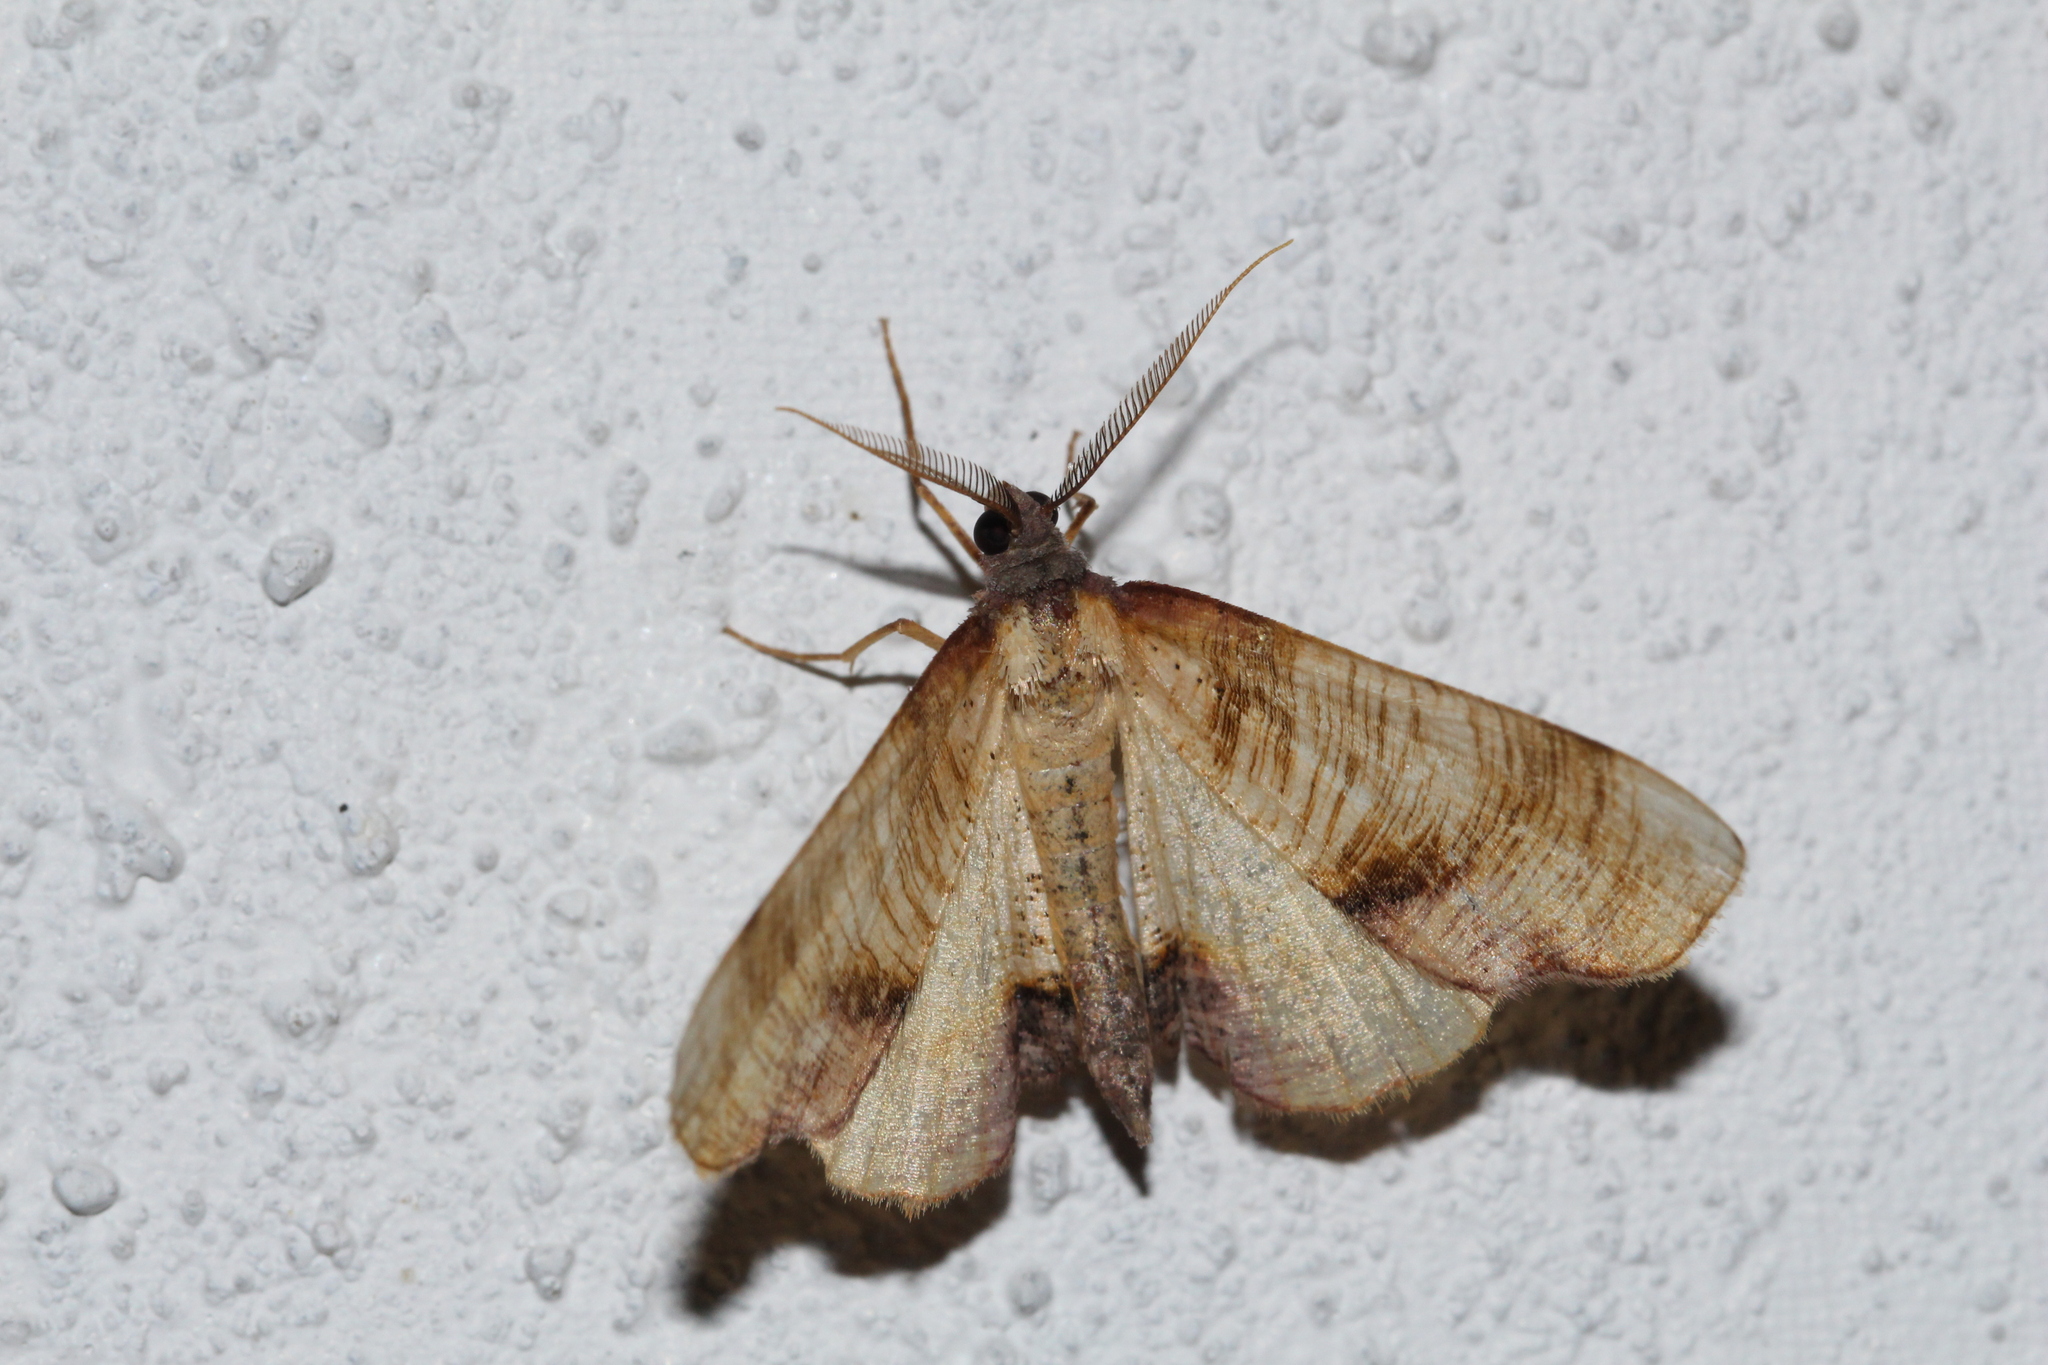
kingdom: Animalia
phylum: Arthropoda
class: Insecta
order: Lepidoptera
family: Geometridae
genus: Plagodis
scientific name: Plagodis dolabraria
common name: Scorched wing
